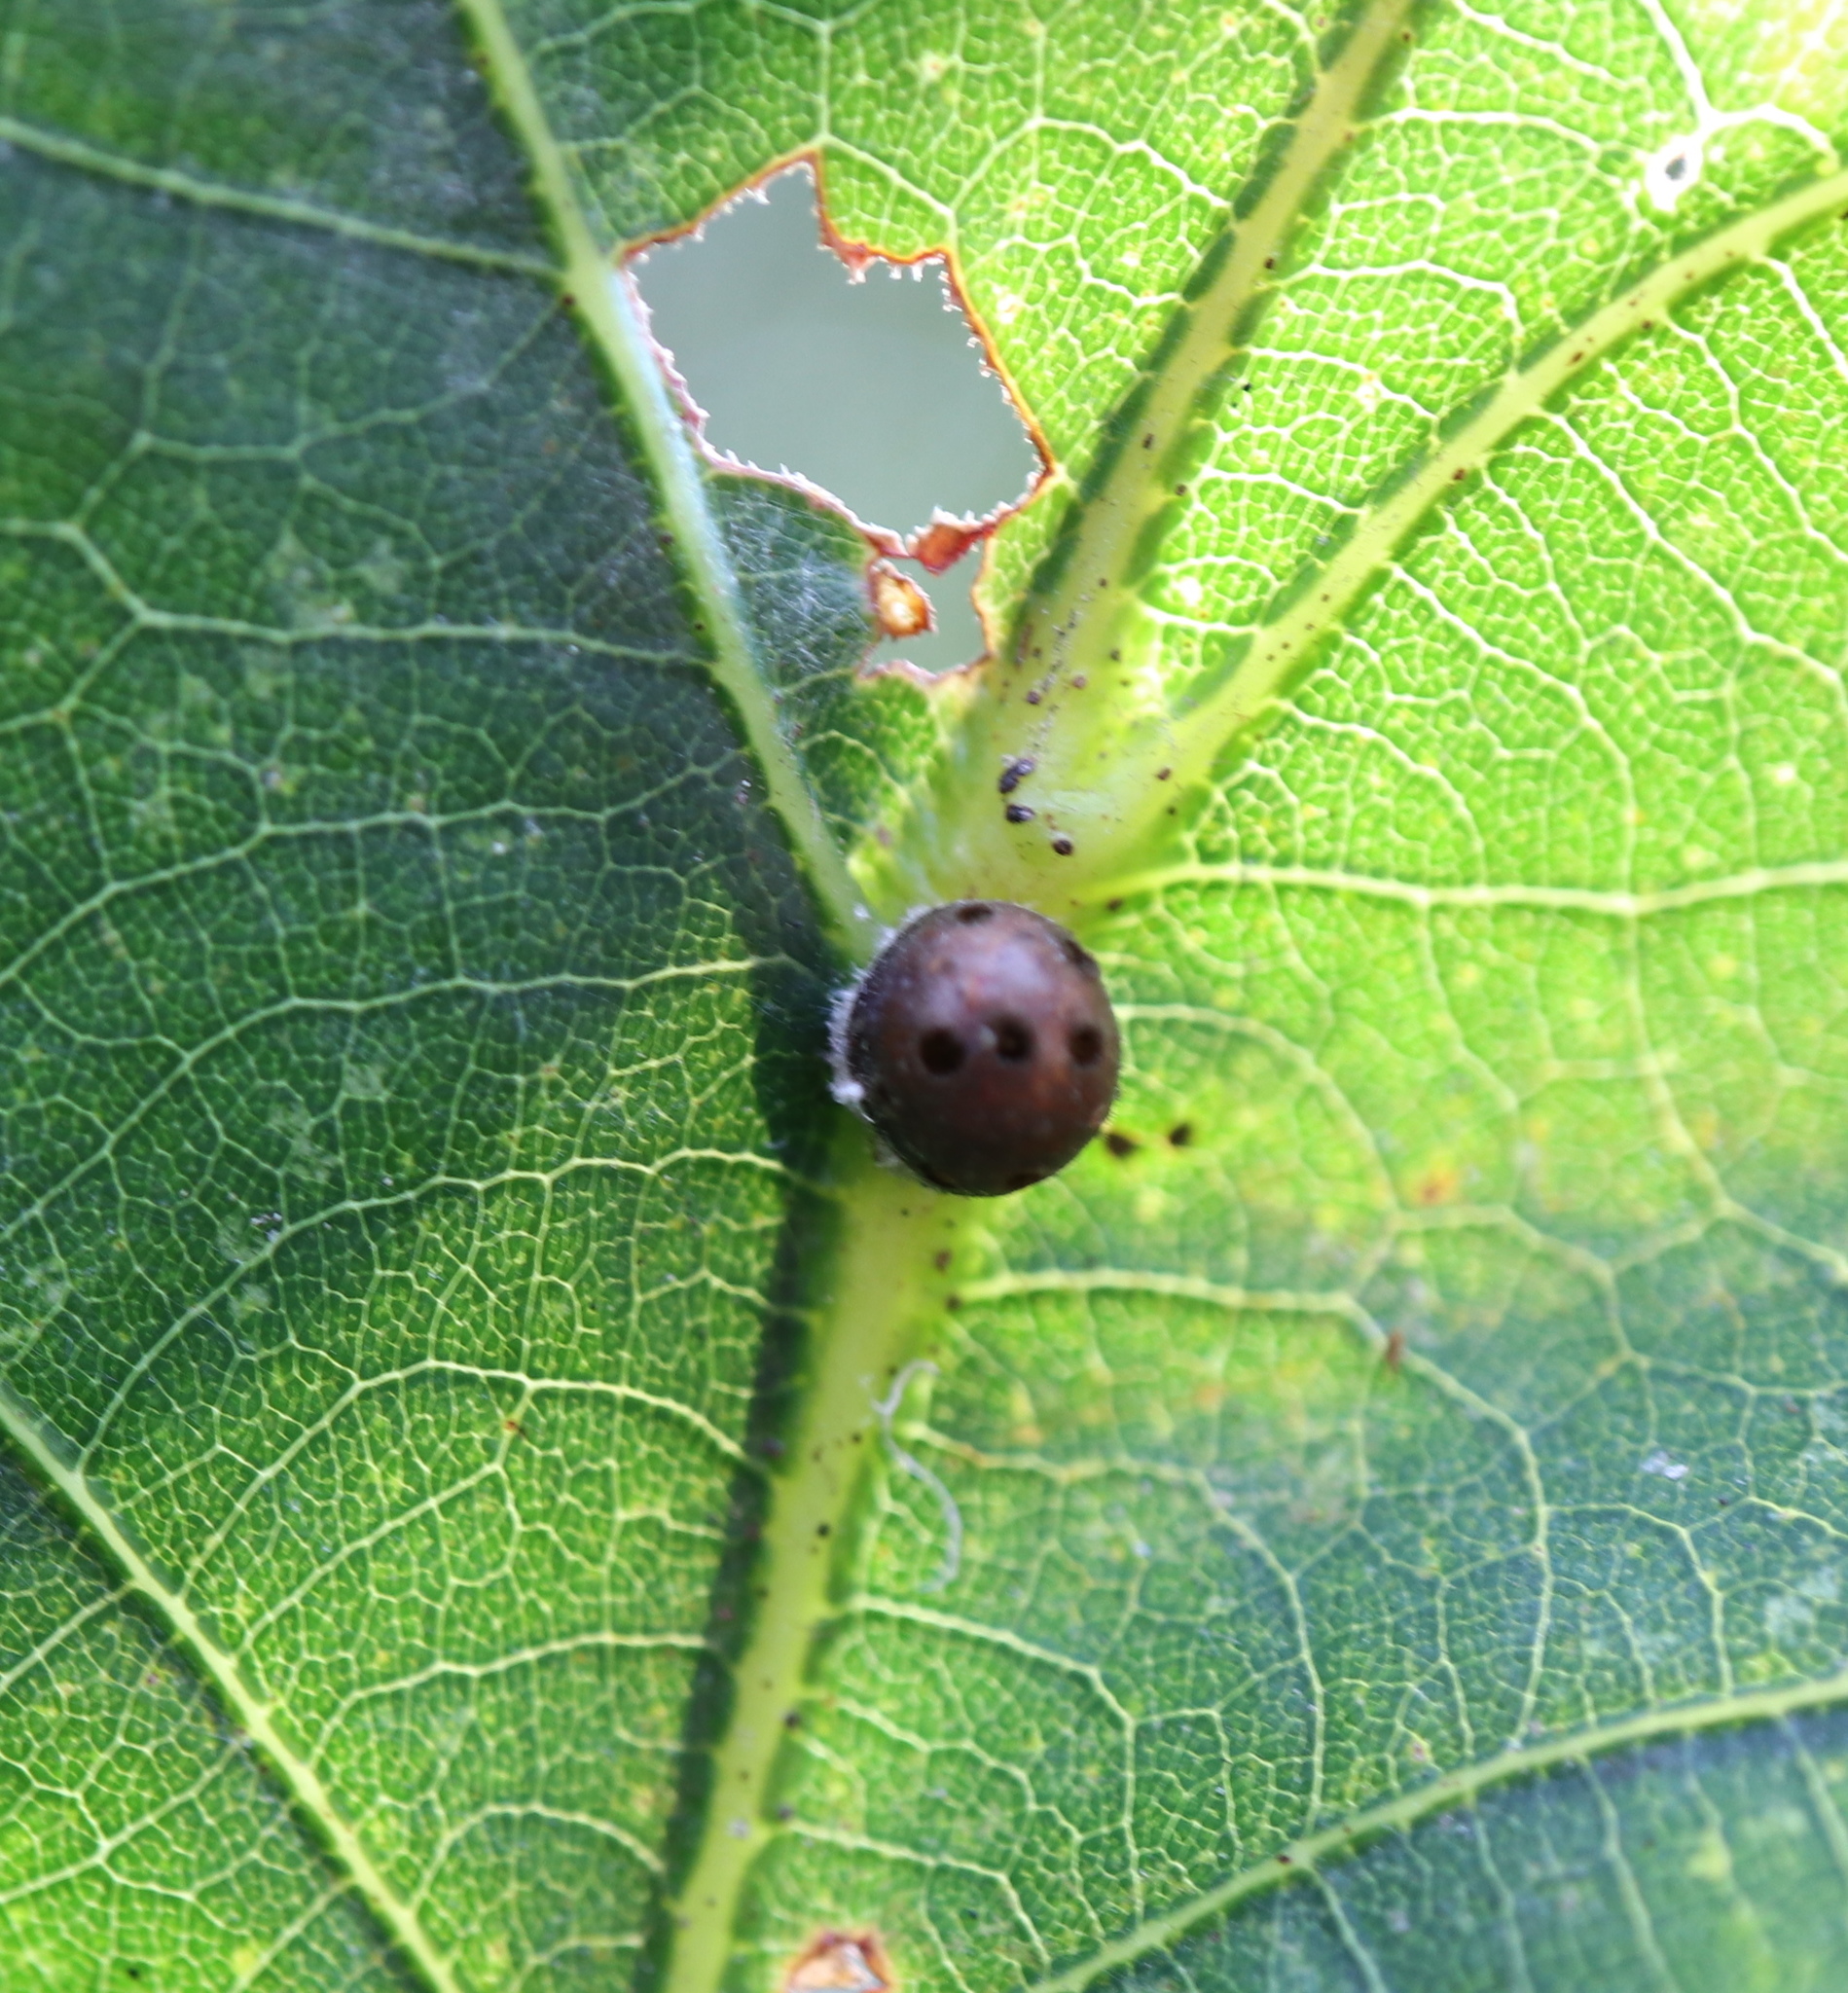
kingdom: Animalia
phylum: Arthropoda
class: Insecta
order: Hemiptera
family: Kermesidae
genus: Nanokermes
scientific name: Nanokermes folium
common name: Leaf kermes
